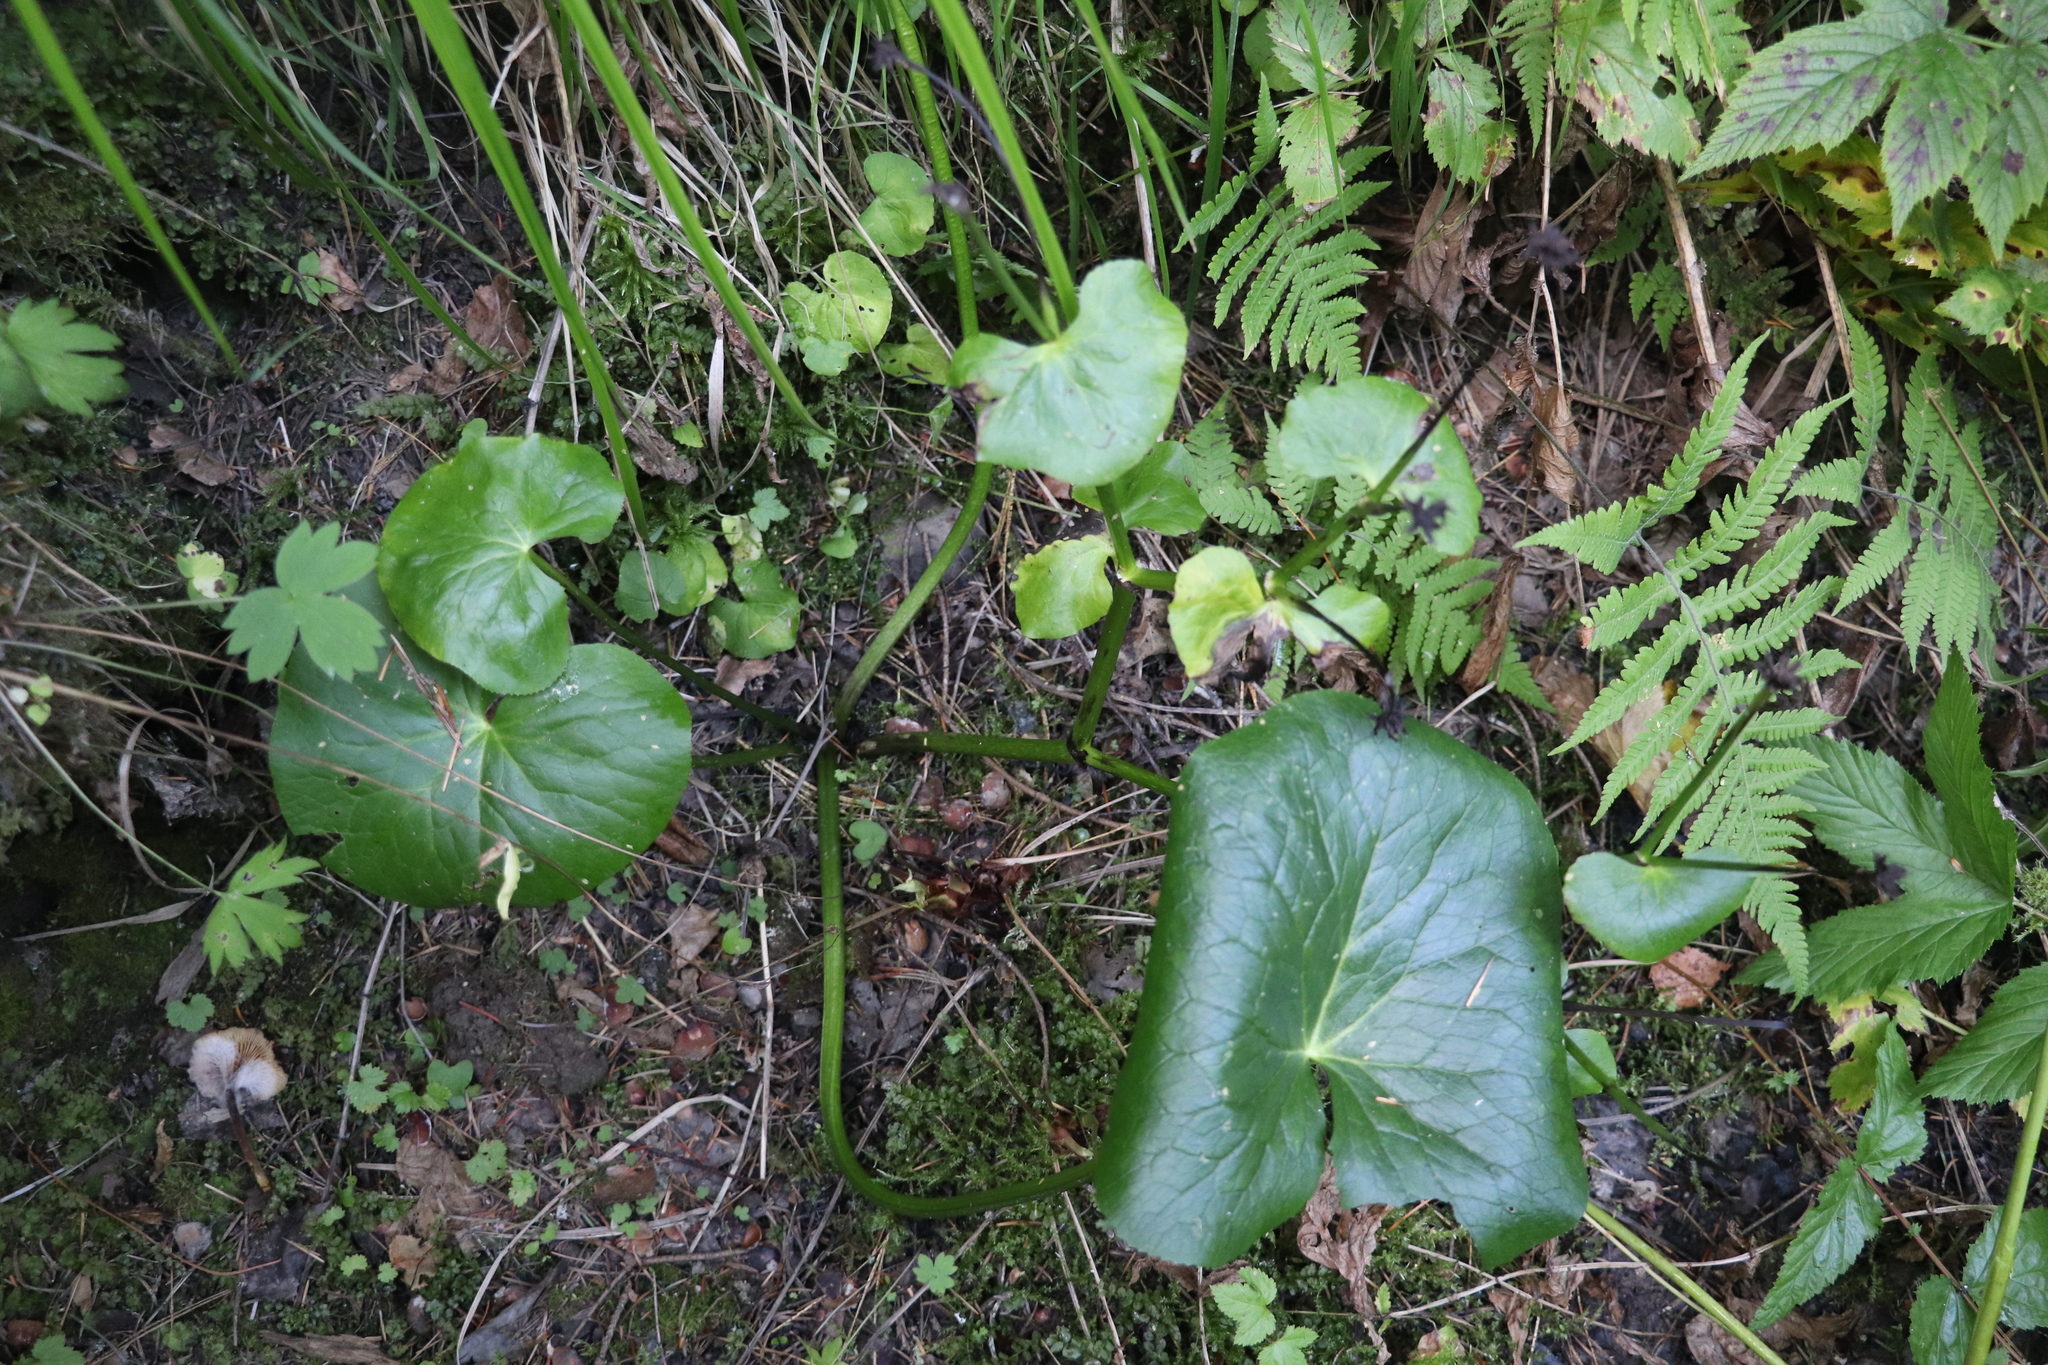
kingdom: Plantae
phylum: Tracheophyta
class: Magnoliopsida
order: Ranunculales
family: Ranunculaceae
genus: Caltha
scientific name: Caltha palustris
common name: Marsh marigold
